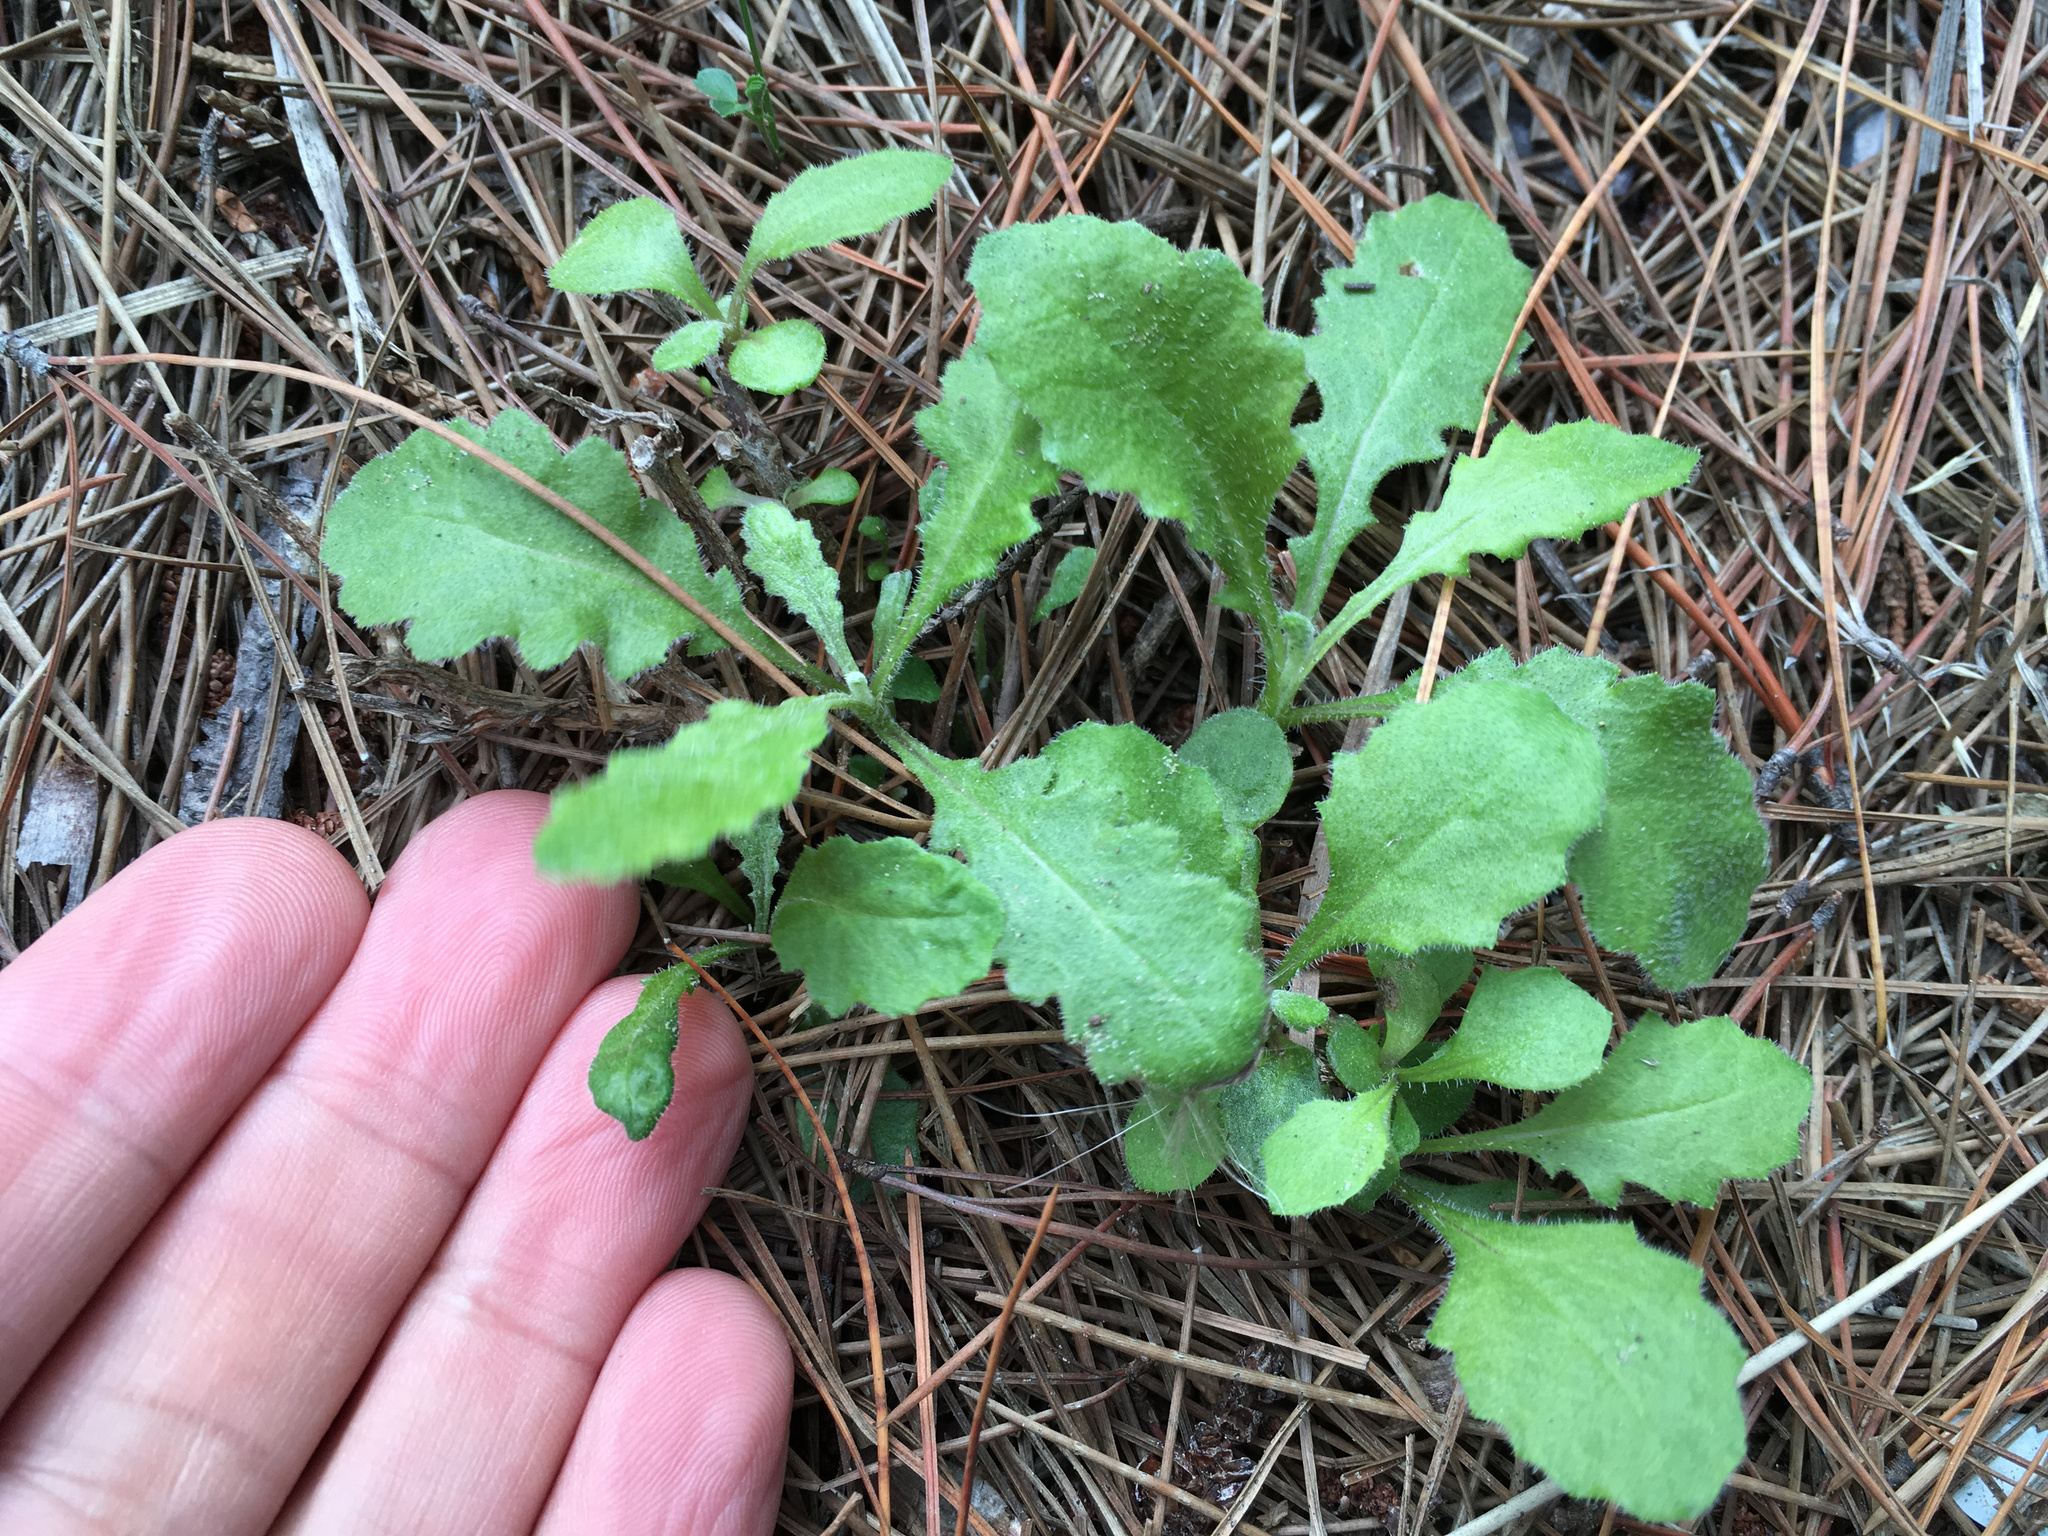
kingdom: Plantae
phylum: Tracheophyta
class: Magnoliopsida
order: Asterales
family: Asteraceae
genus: Senecio
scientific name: Senecio glomeratus
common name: Cutleaf burnweed
